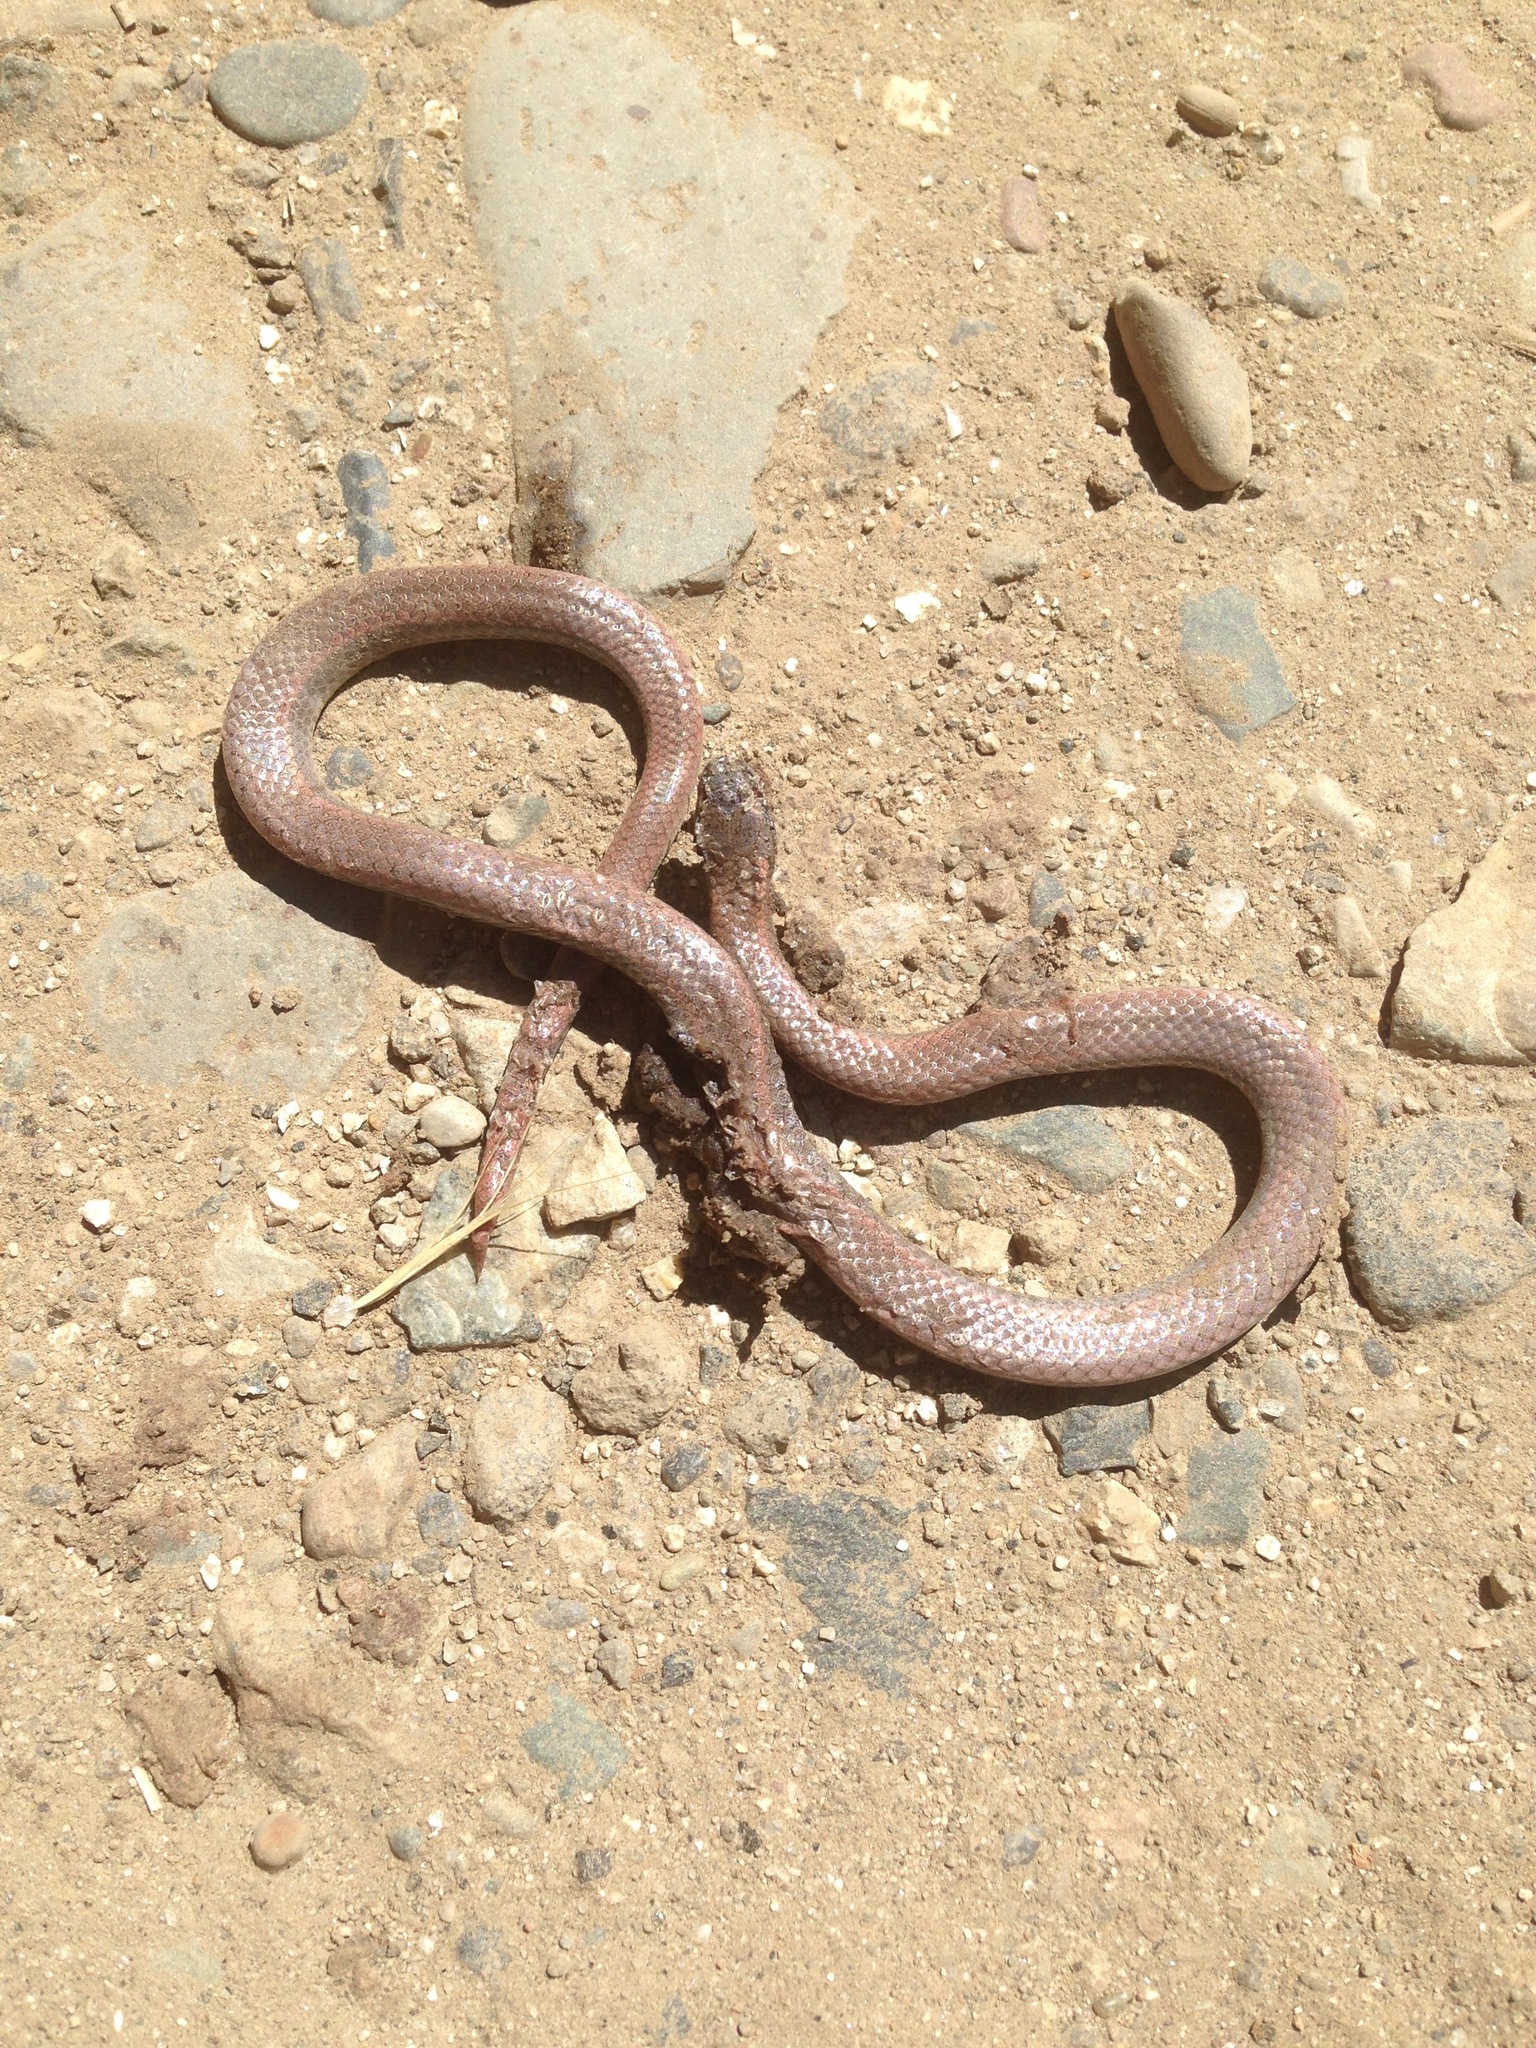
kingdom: Animalia
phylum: Chordata
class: Squamata
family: Colubridae
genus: Contia
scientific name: Contia tenuis
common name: Sharptail snake
